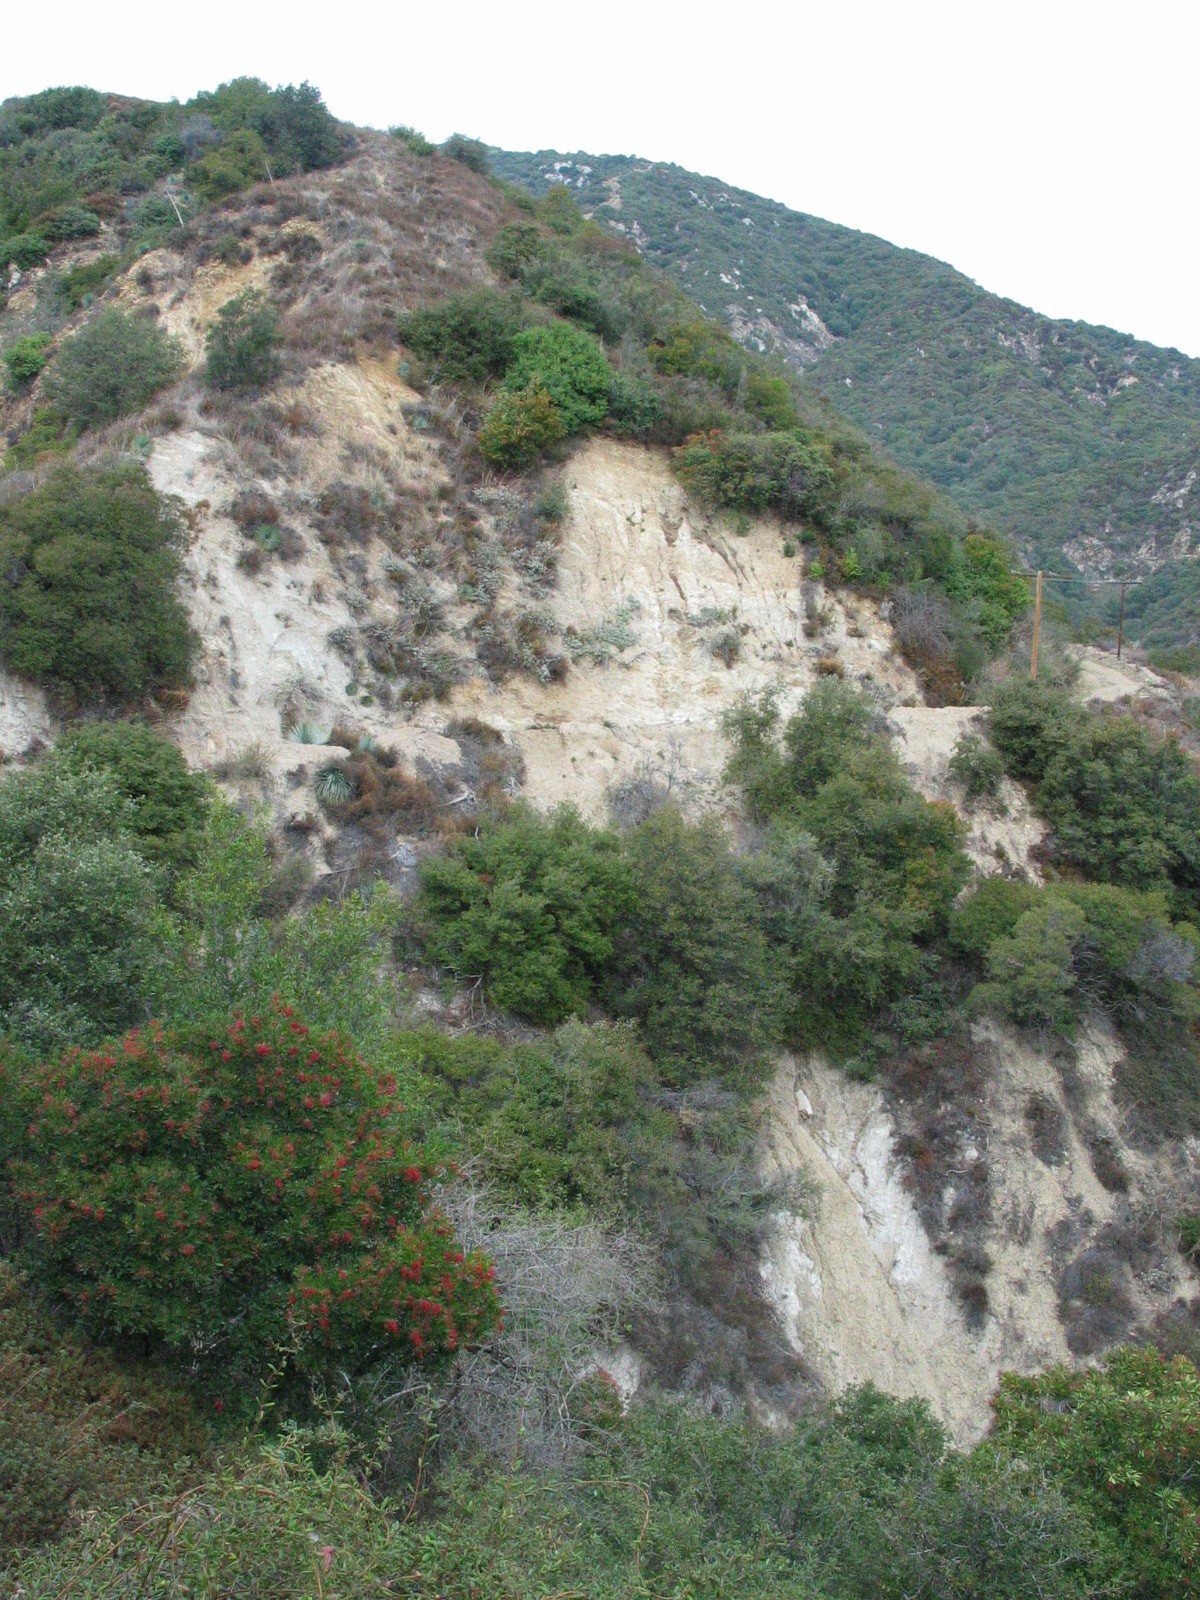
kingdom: Plantae
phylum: Tracheophyta
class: Magnoliopsida
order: Rosales
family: Rosaceae
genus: Heteromeles
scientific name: Heteromeles arbutifolia
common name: California-holly
